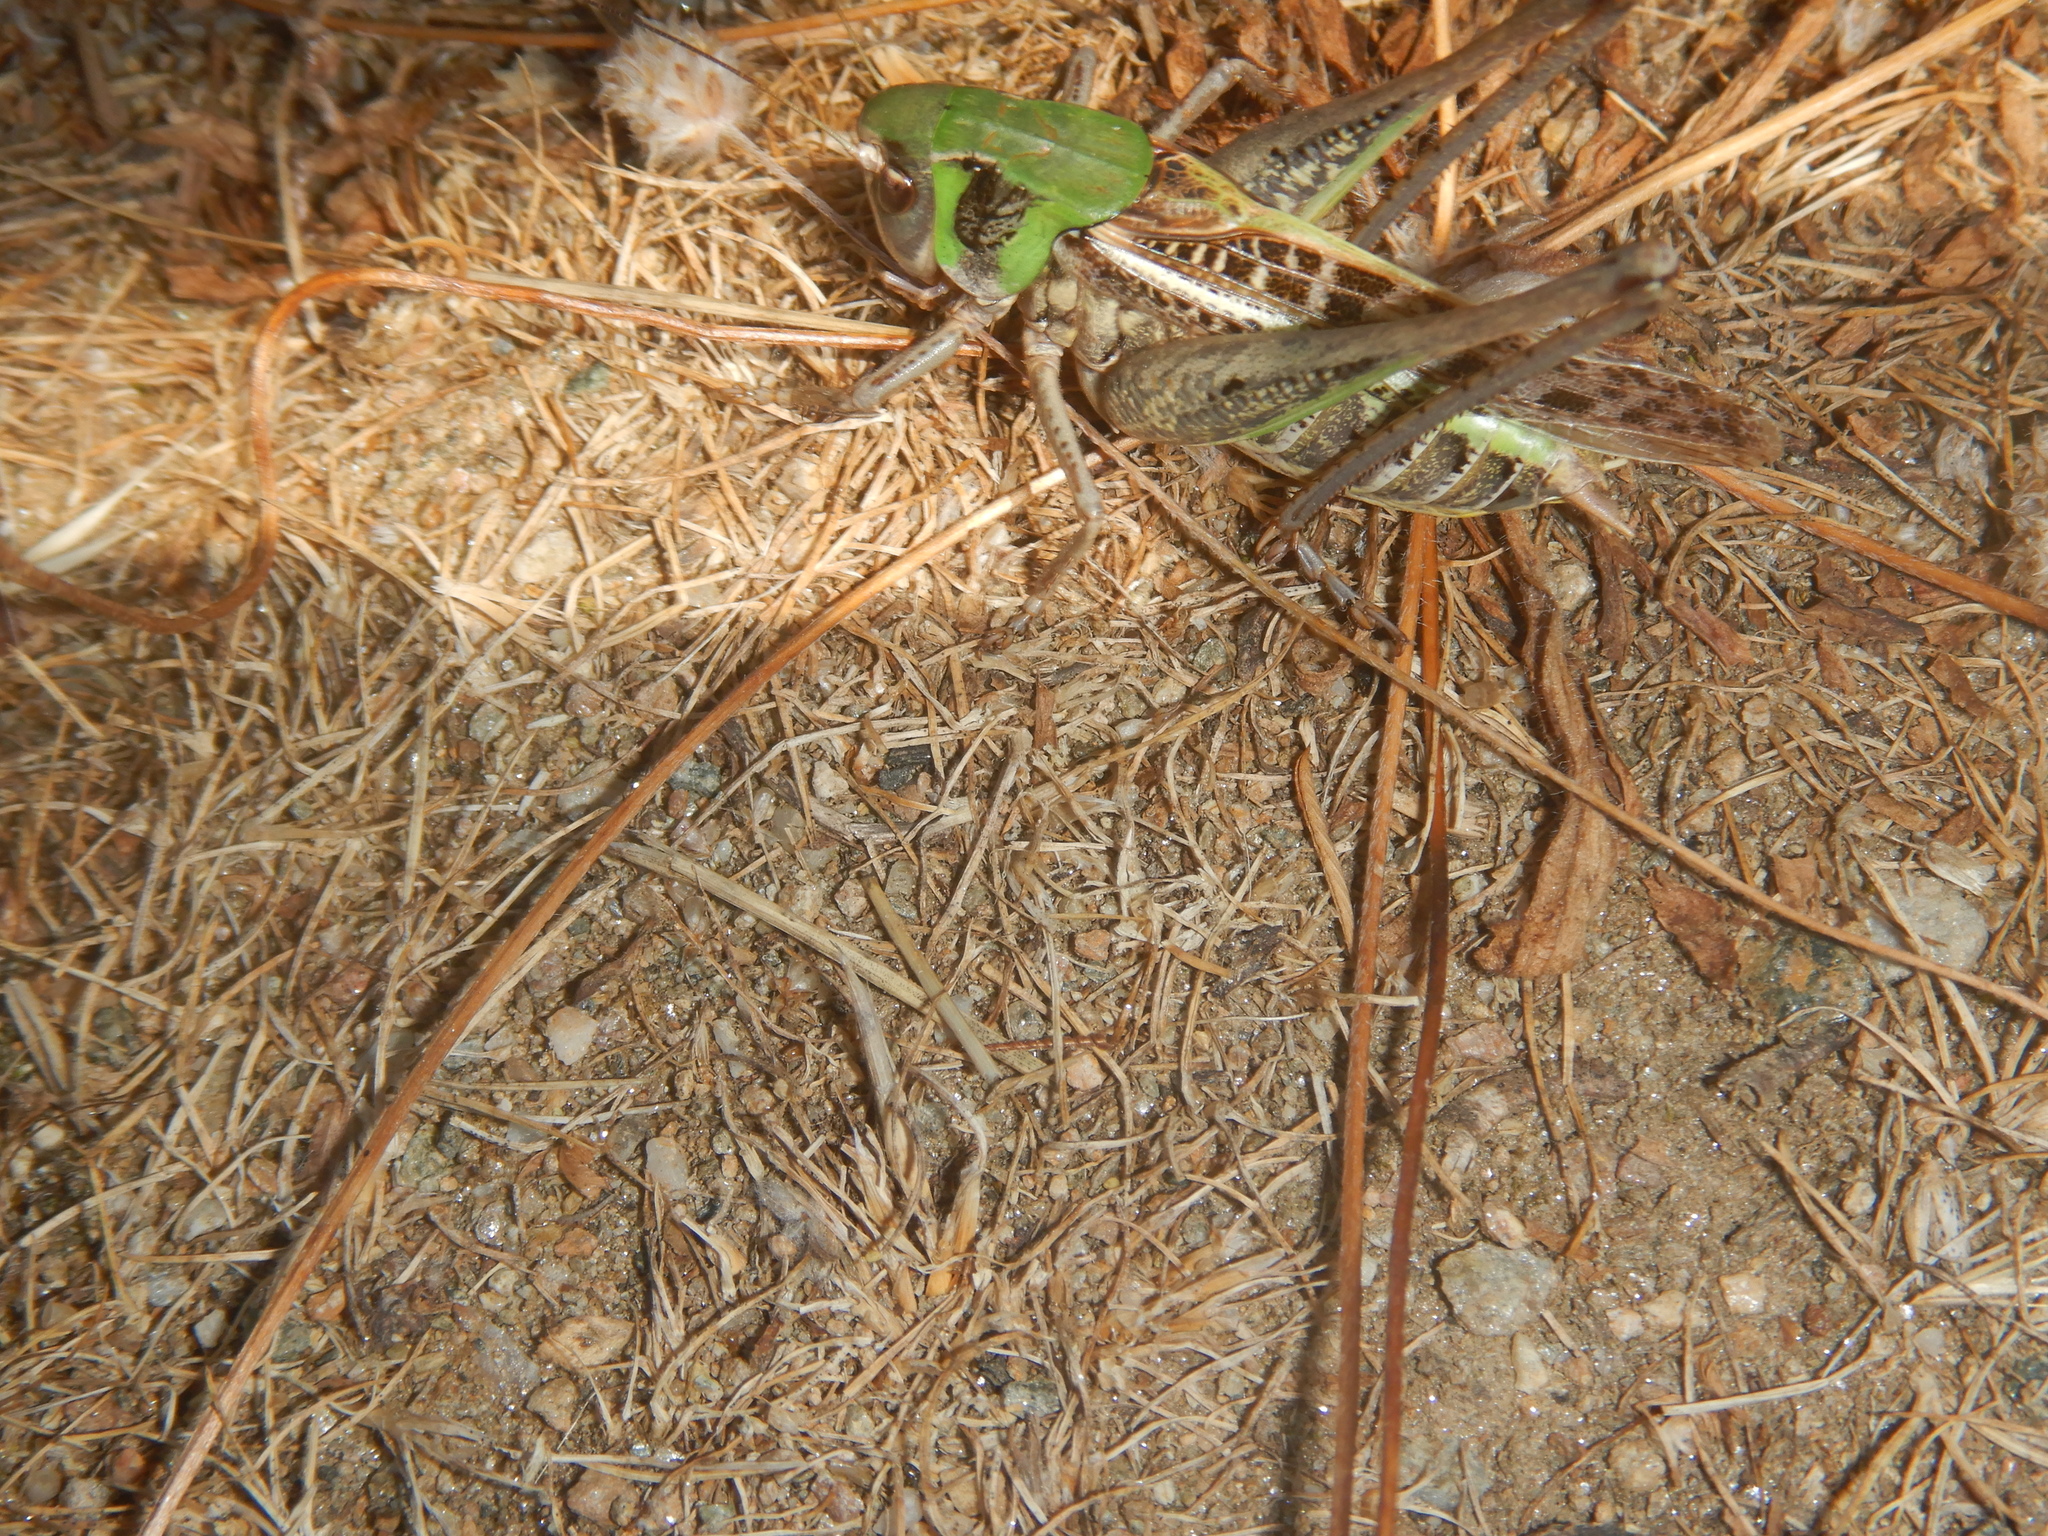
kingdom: Animalia
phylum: Arthropoda
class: Insecta
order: Orthoptera
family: Tettigoniidae
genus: Decticus
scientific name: Decticus verrucivorus
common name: Wart-biter
